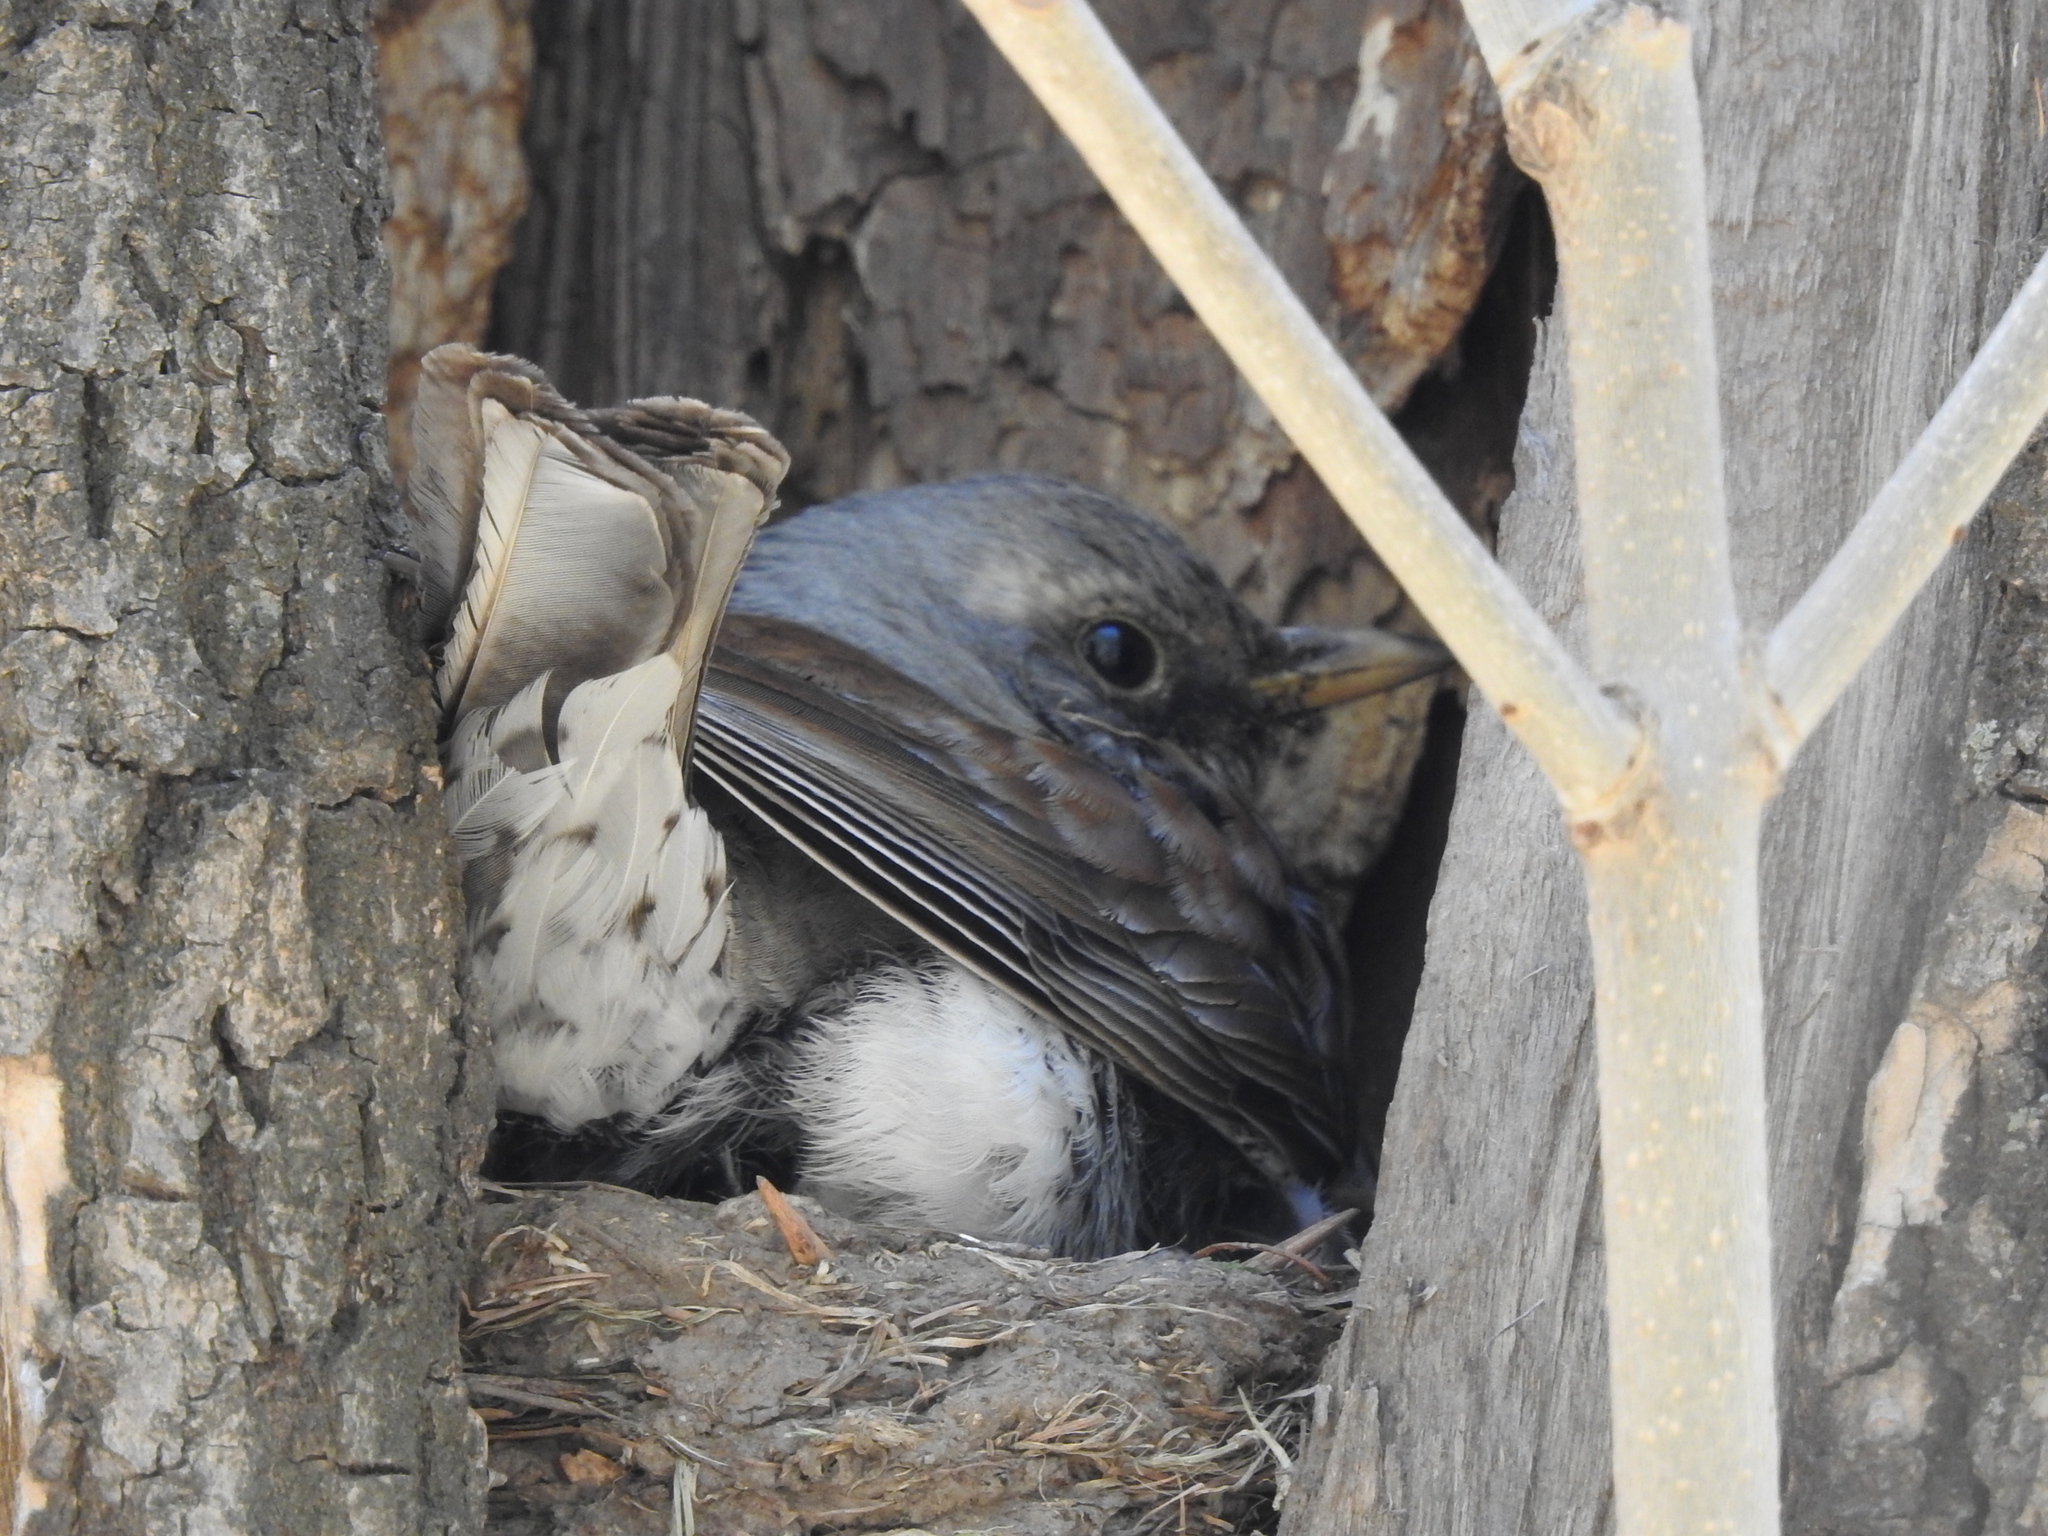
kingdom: Animalia
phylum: Chordata
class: Aves
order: Passeriformes
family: Turdidae
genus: Turdus
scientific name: Turdus pilaris
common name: Fieldfare
